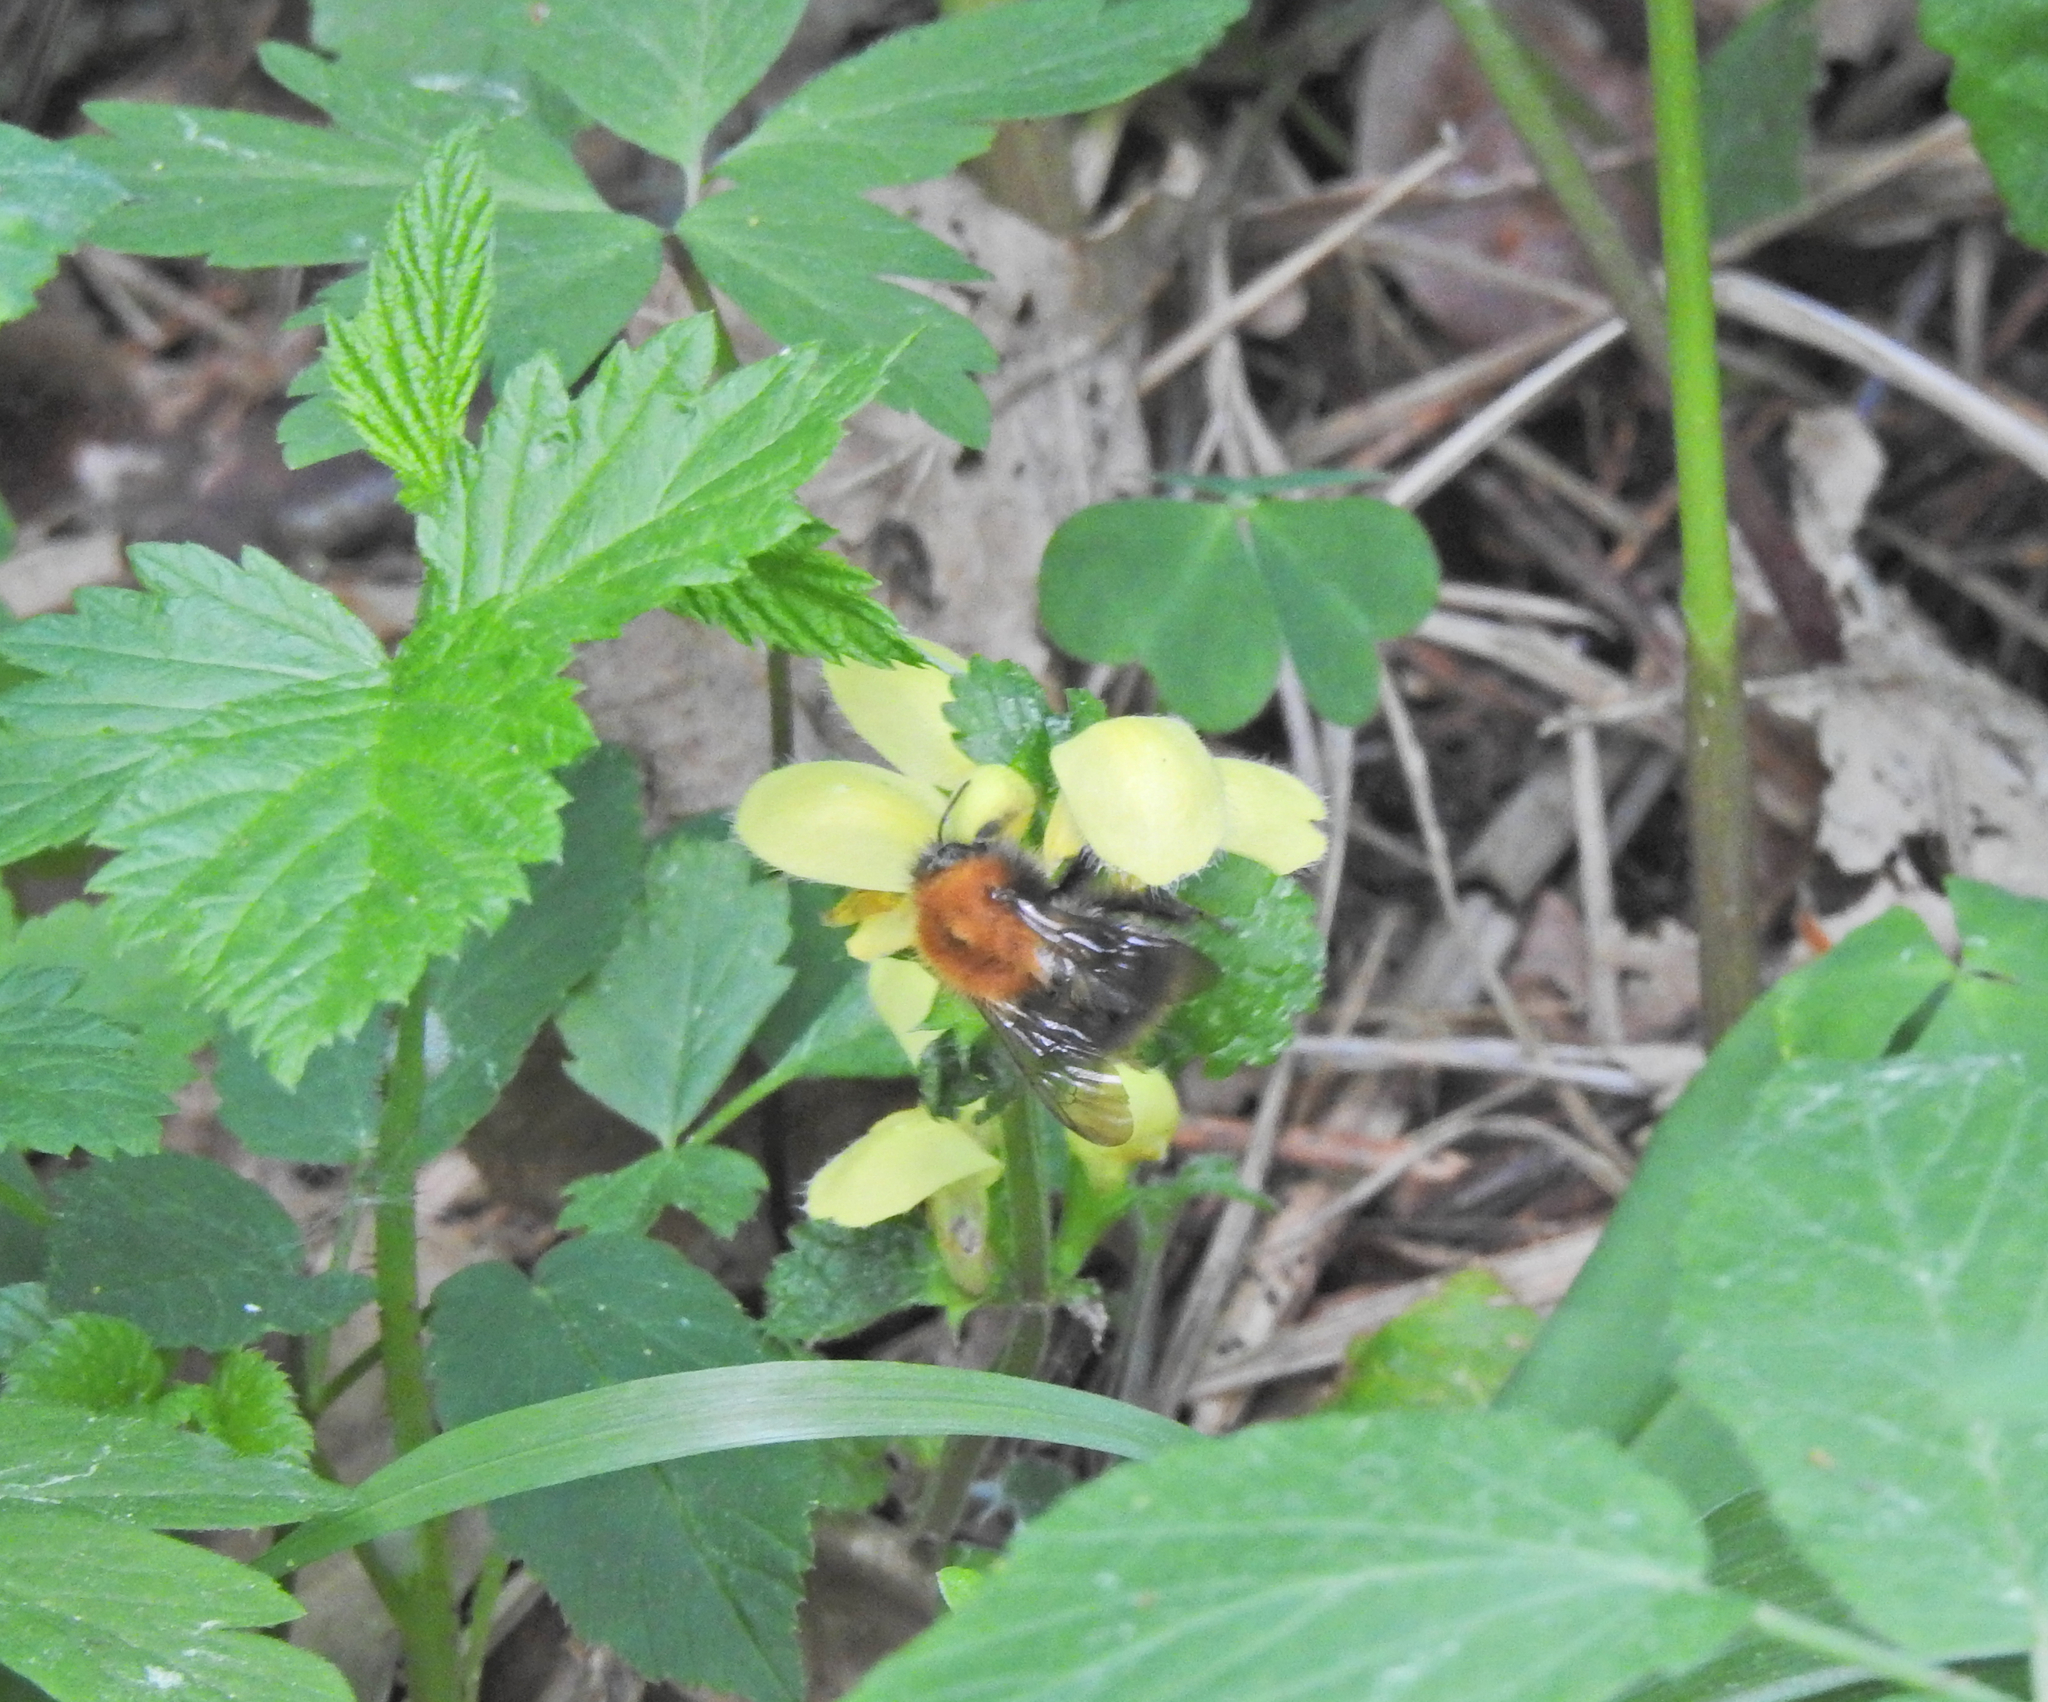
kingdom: Animalia
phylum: Arthropoda
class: Insecta
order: Hymenoptera
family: Apidae
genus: Bombus
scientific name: Bombus pascuorum
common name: Common carder bee
